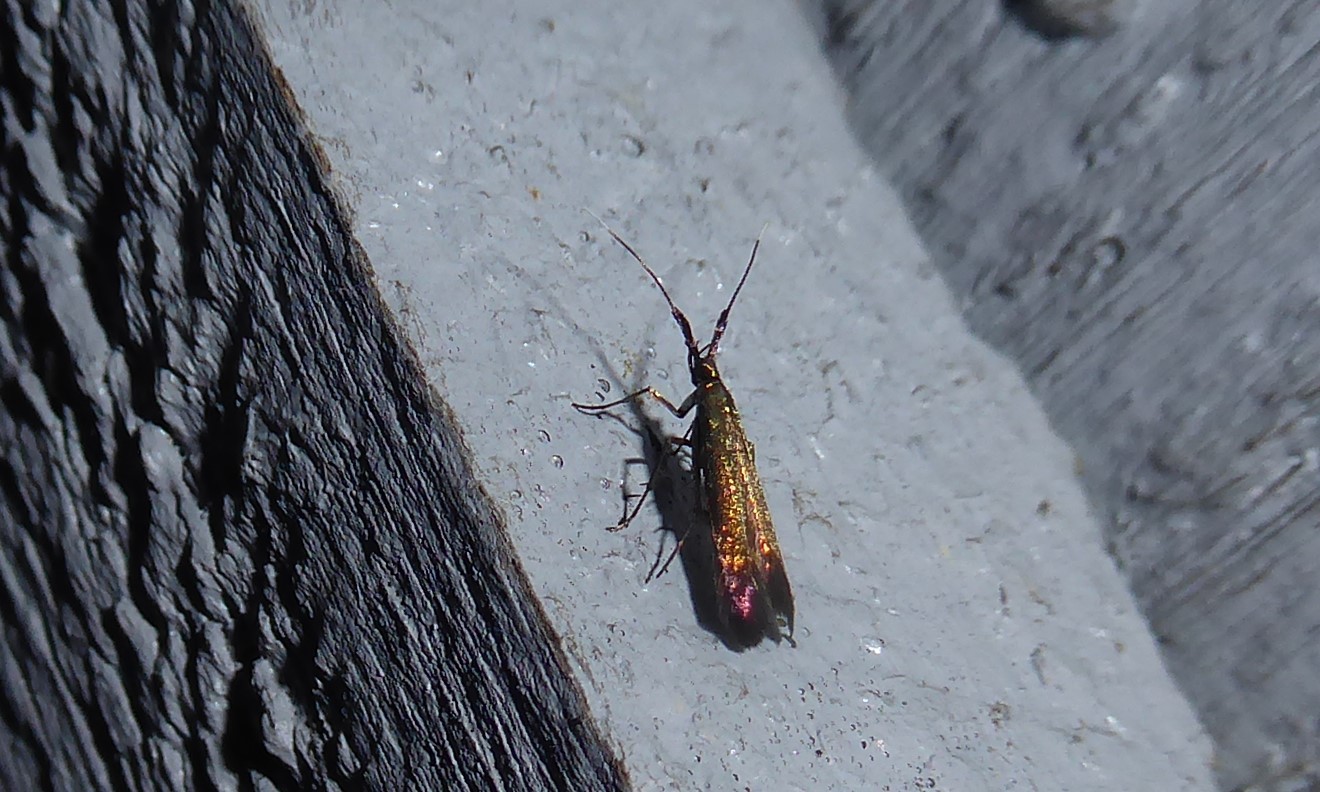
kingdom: Animalia
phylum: Arthropoda
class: Insecta
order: Lepidoptera
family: Coleophoridae
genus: Coleophora
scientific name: Coleophora deauratella
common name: Red-clover case-bearer
